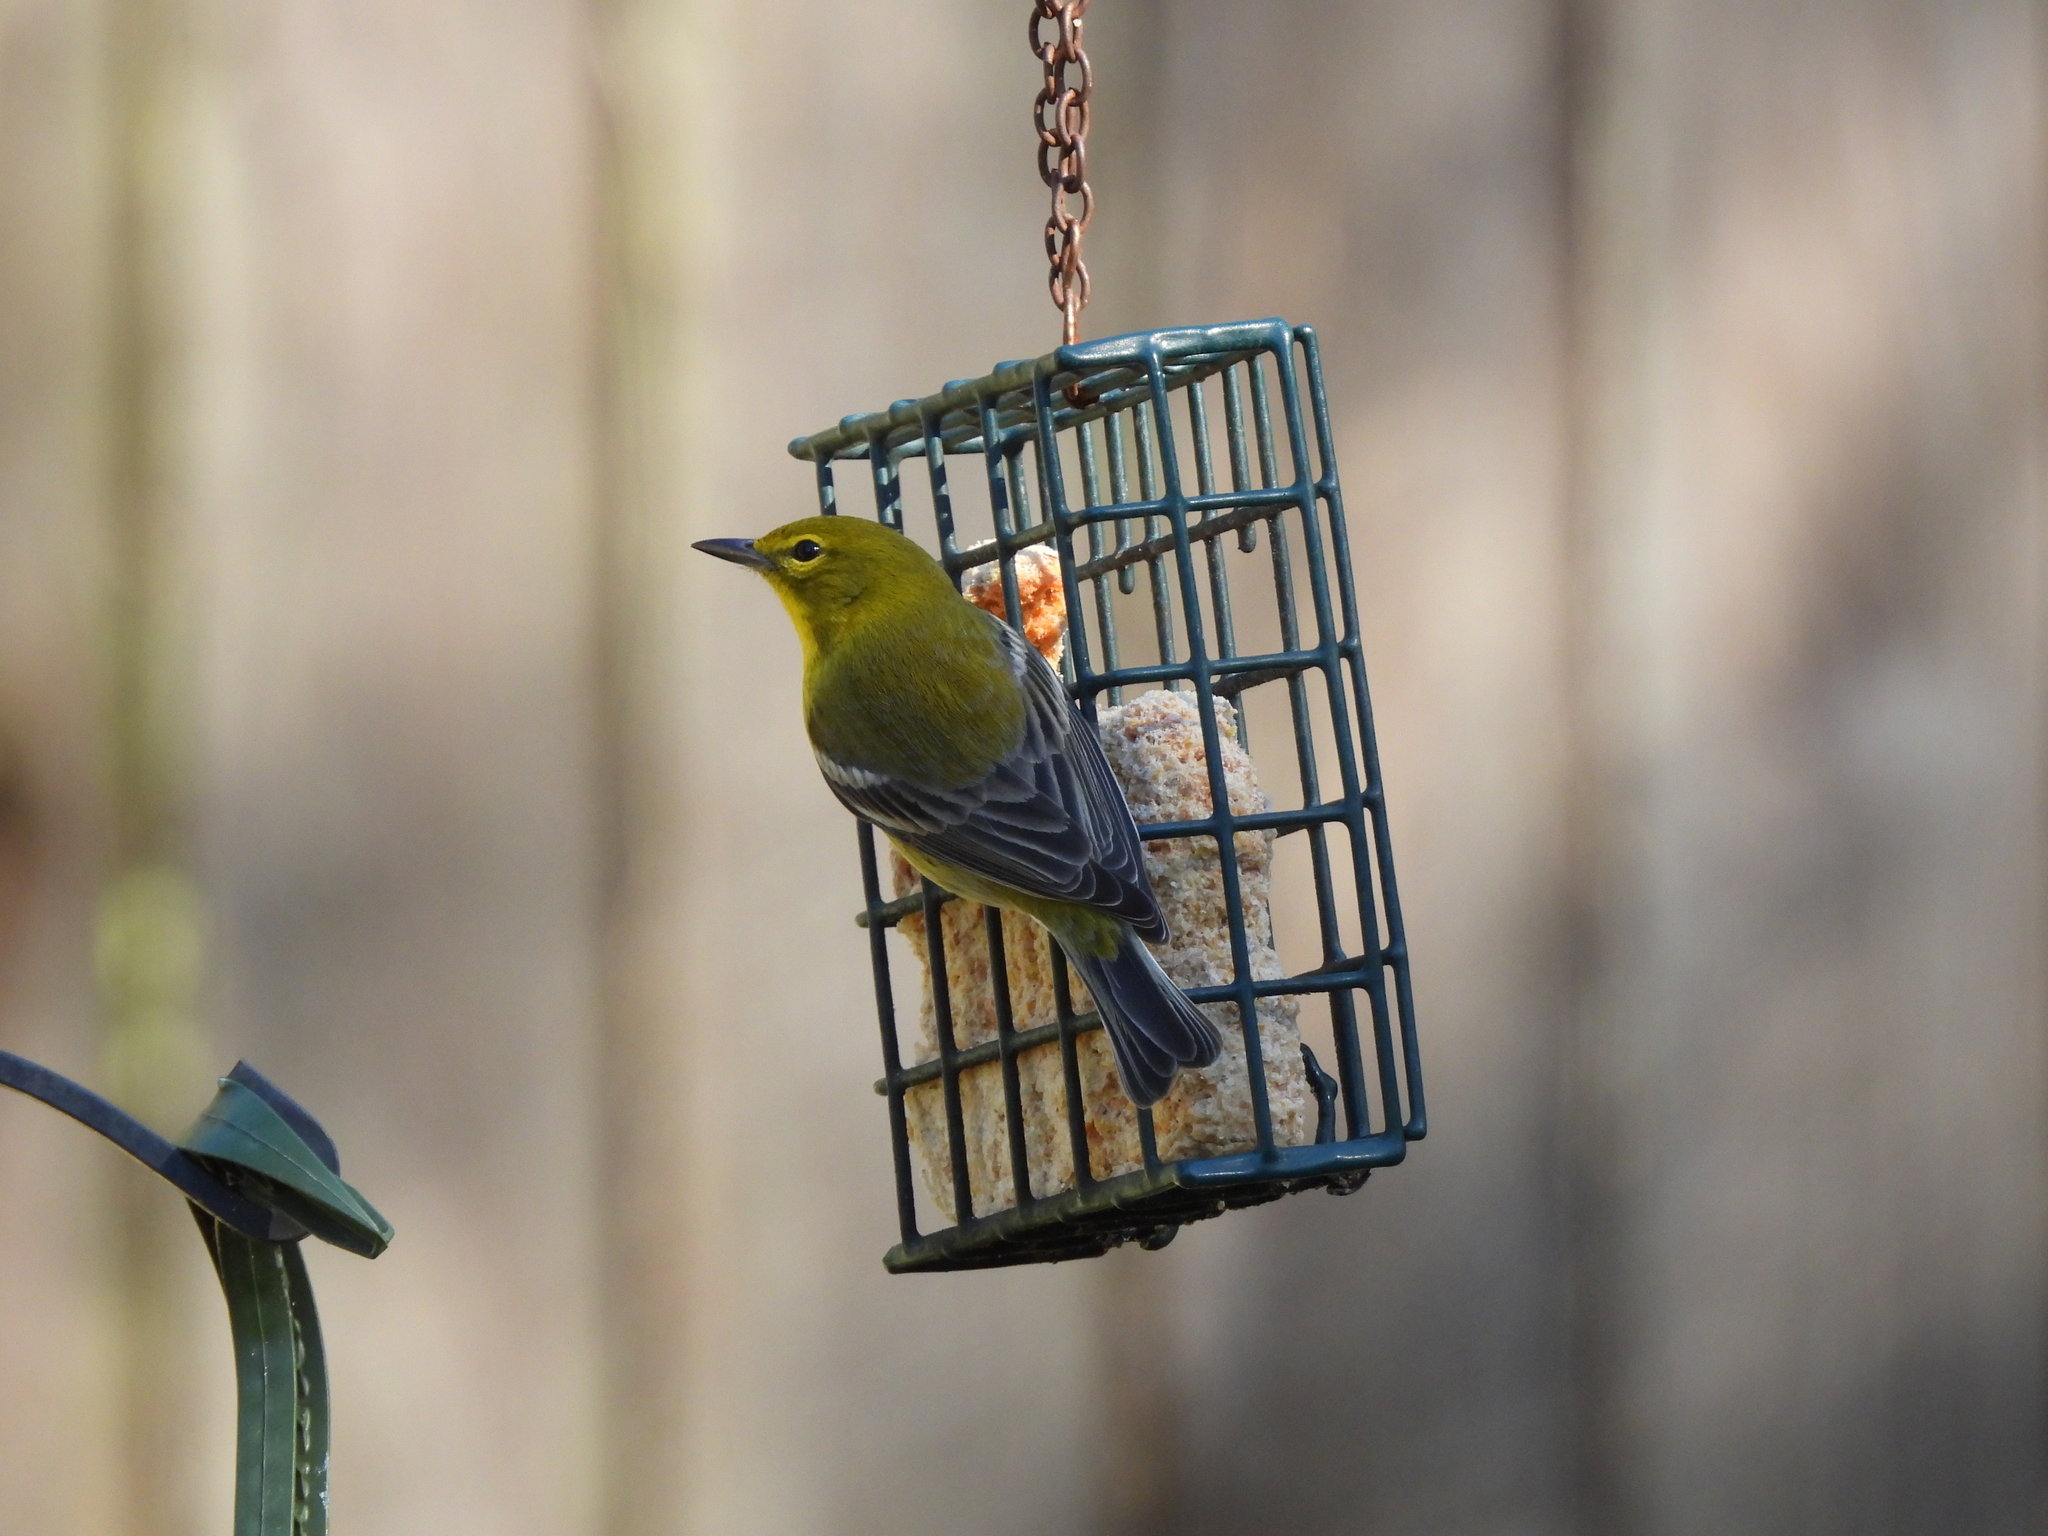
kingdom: Animalia
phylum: Chordata
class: Aves
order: Passeriformes
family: Parulidae
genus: Setophaga
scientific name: Setophaga pinus
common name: Pine warbler
